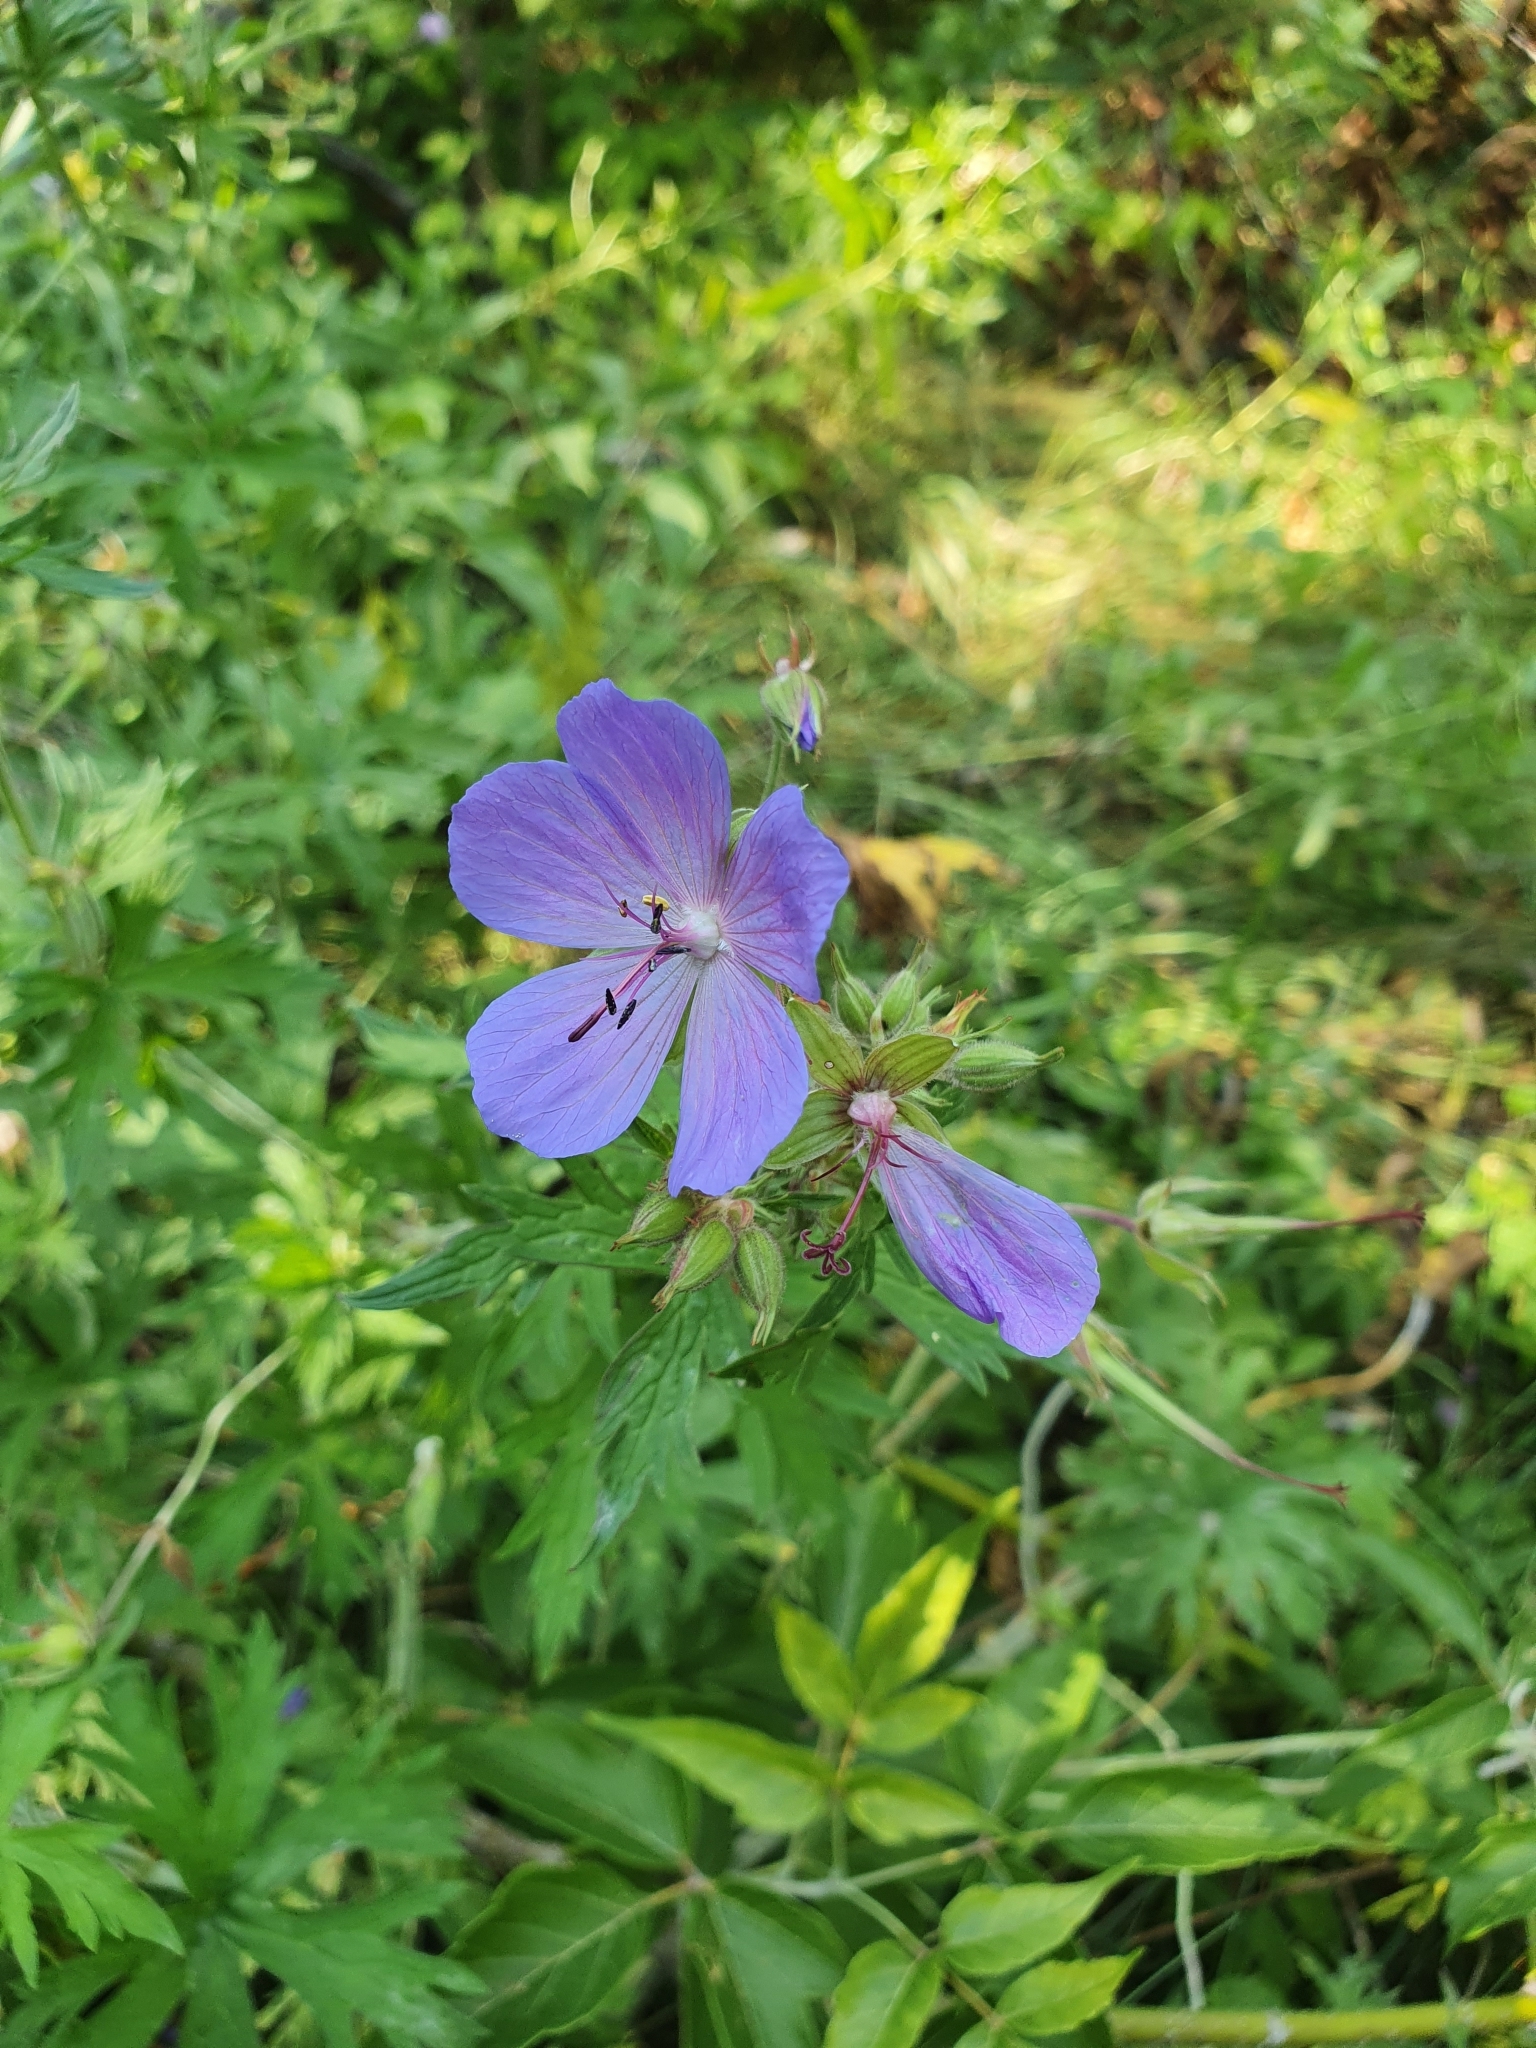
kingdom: Plantae
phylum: Tracheophyta
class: Magnoliopsida
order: Geraniales
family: Geraniaceae
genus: Geranium
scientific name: Geranium pratense
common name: Meadow crane's-bill
